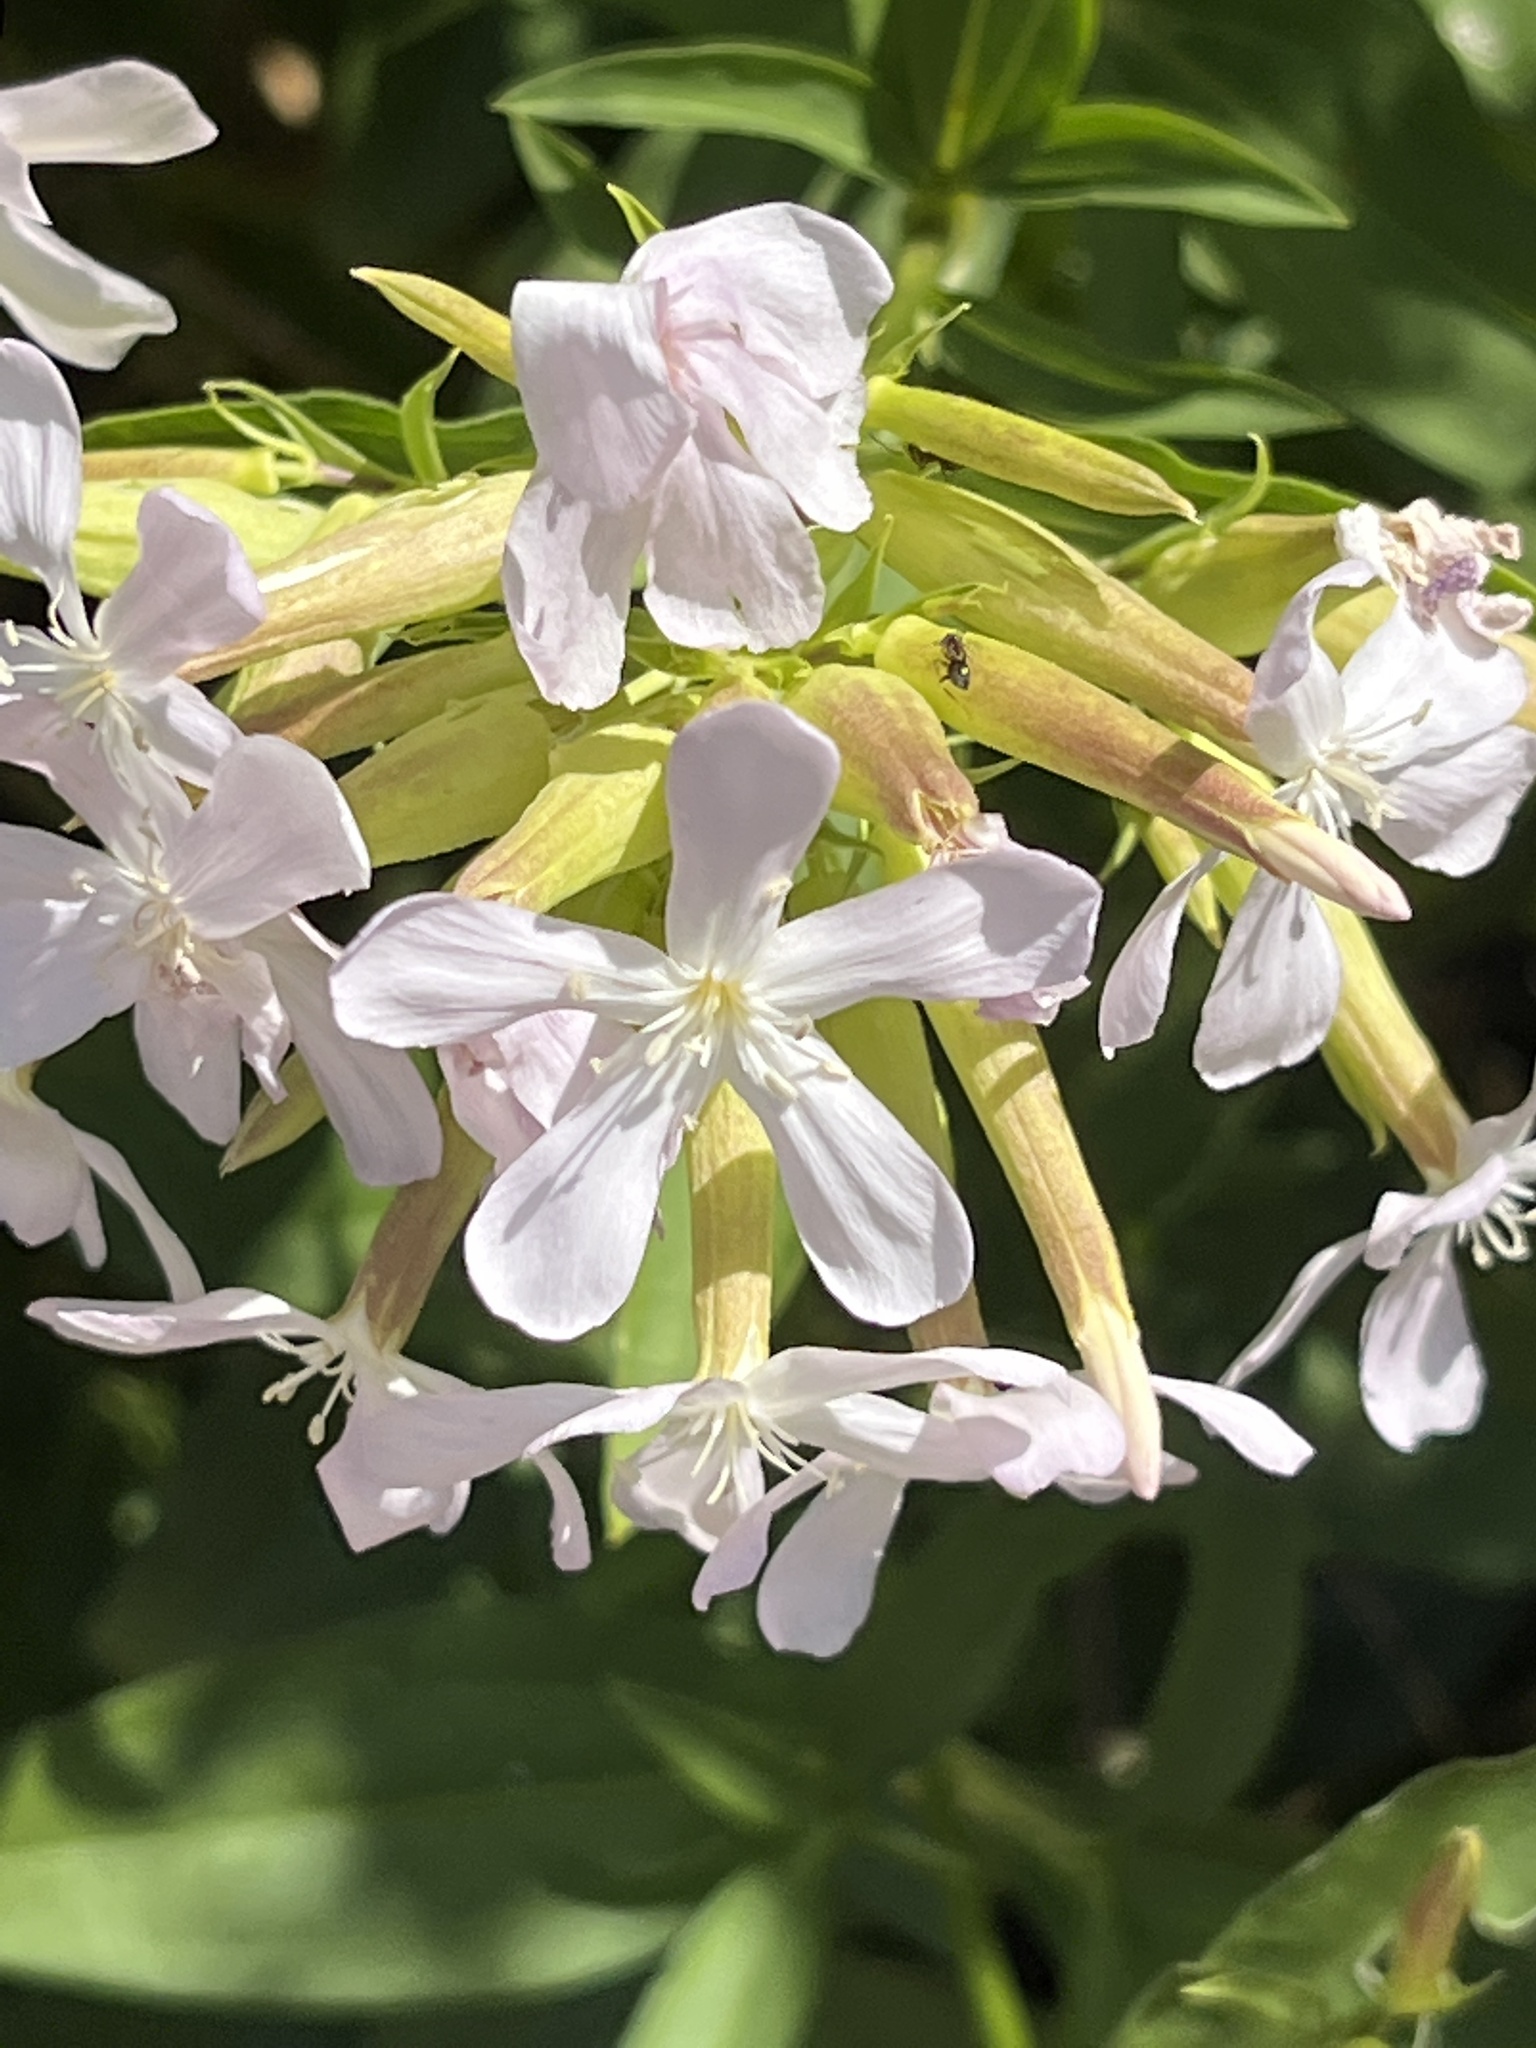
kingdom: Plantae
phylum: Tracheophyta
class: Magnoliopsida
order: Caryophyllales
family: Caryophyllaceae
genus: Saponaria
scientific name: Saponaria officinalis
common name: Soapwort
